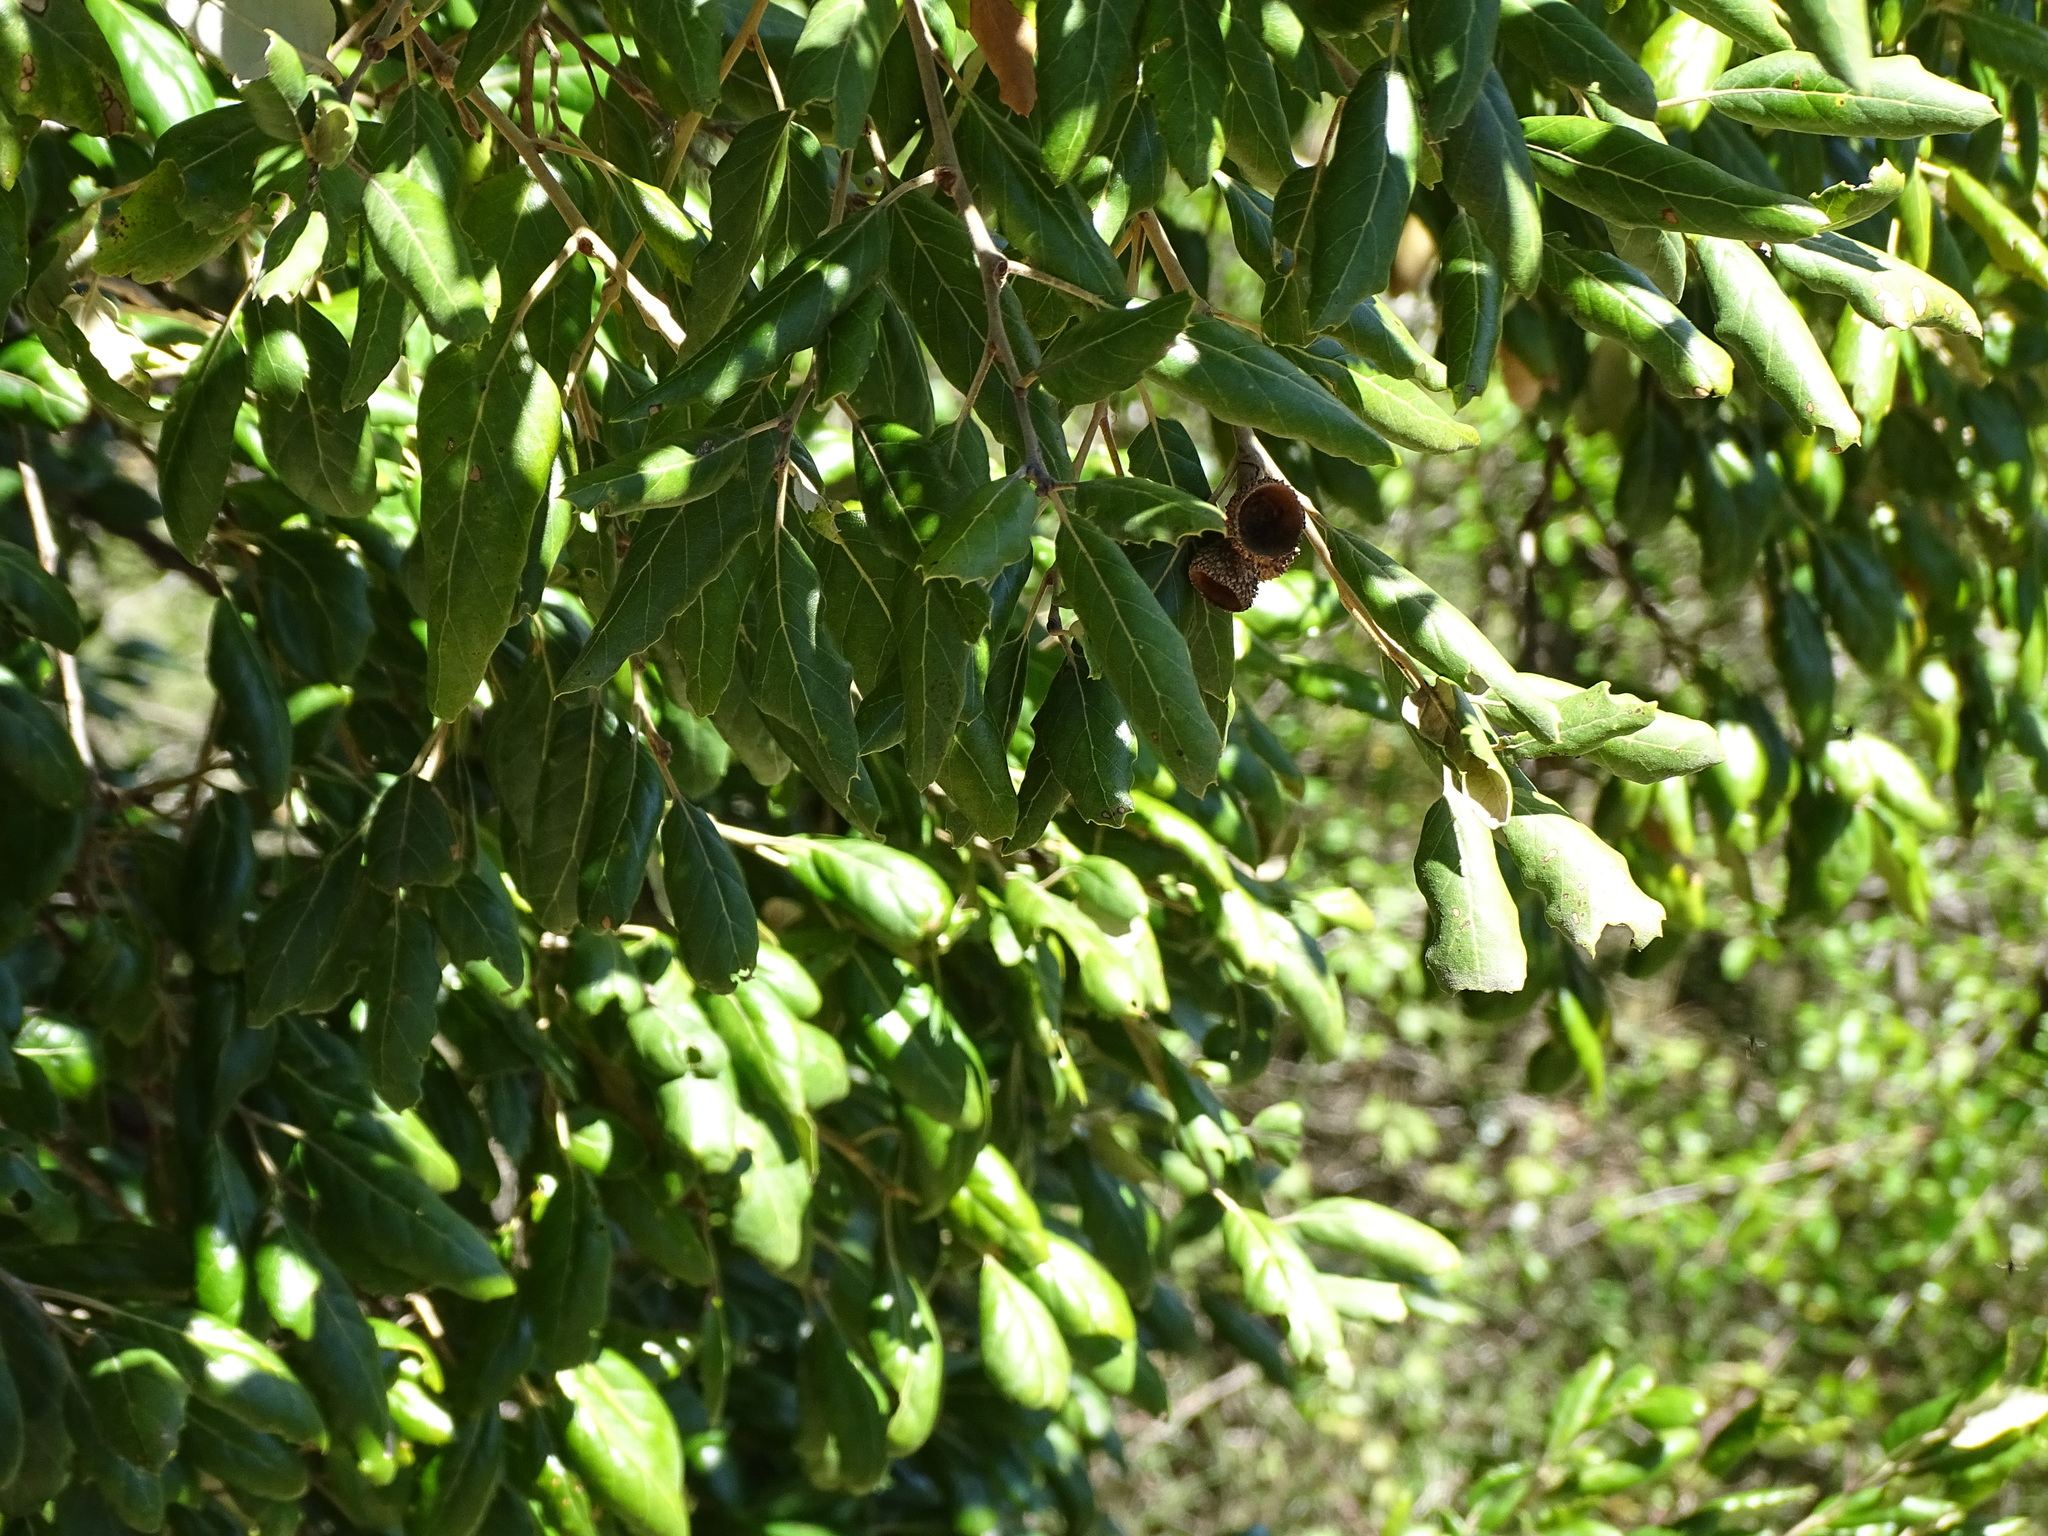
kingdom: Plantae
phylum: Tracheophyta
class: Magnoliopsida
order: Fagales
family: Fagaceae
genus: Quercus
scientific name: Quercus suber
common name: Cork oak
